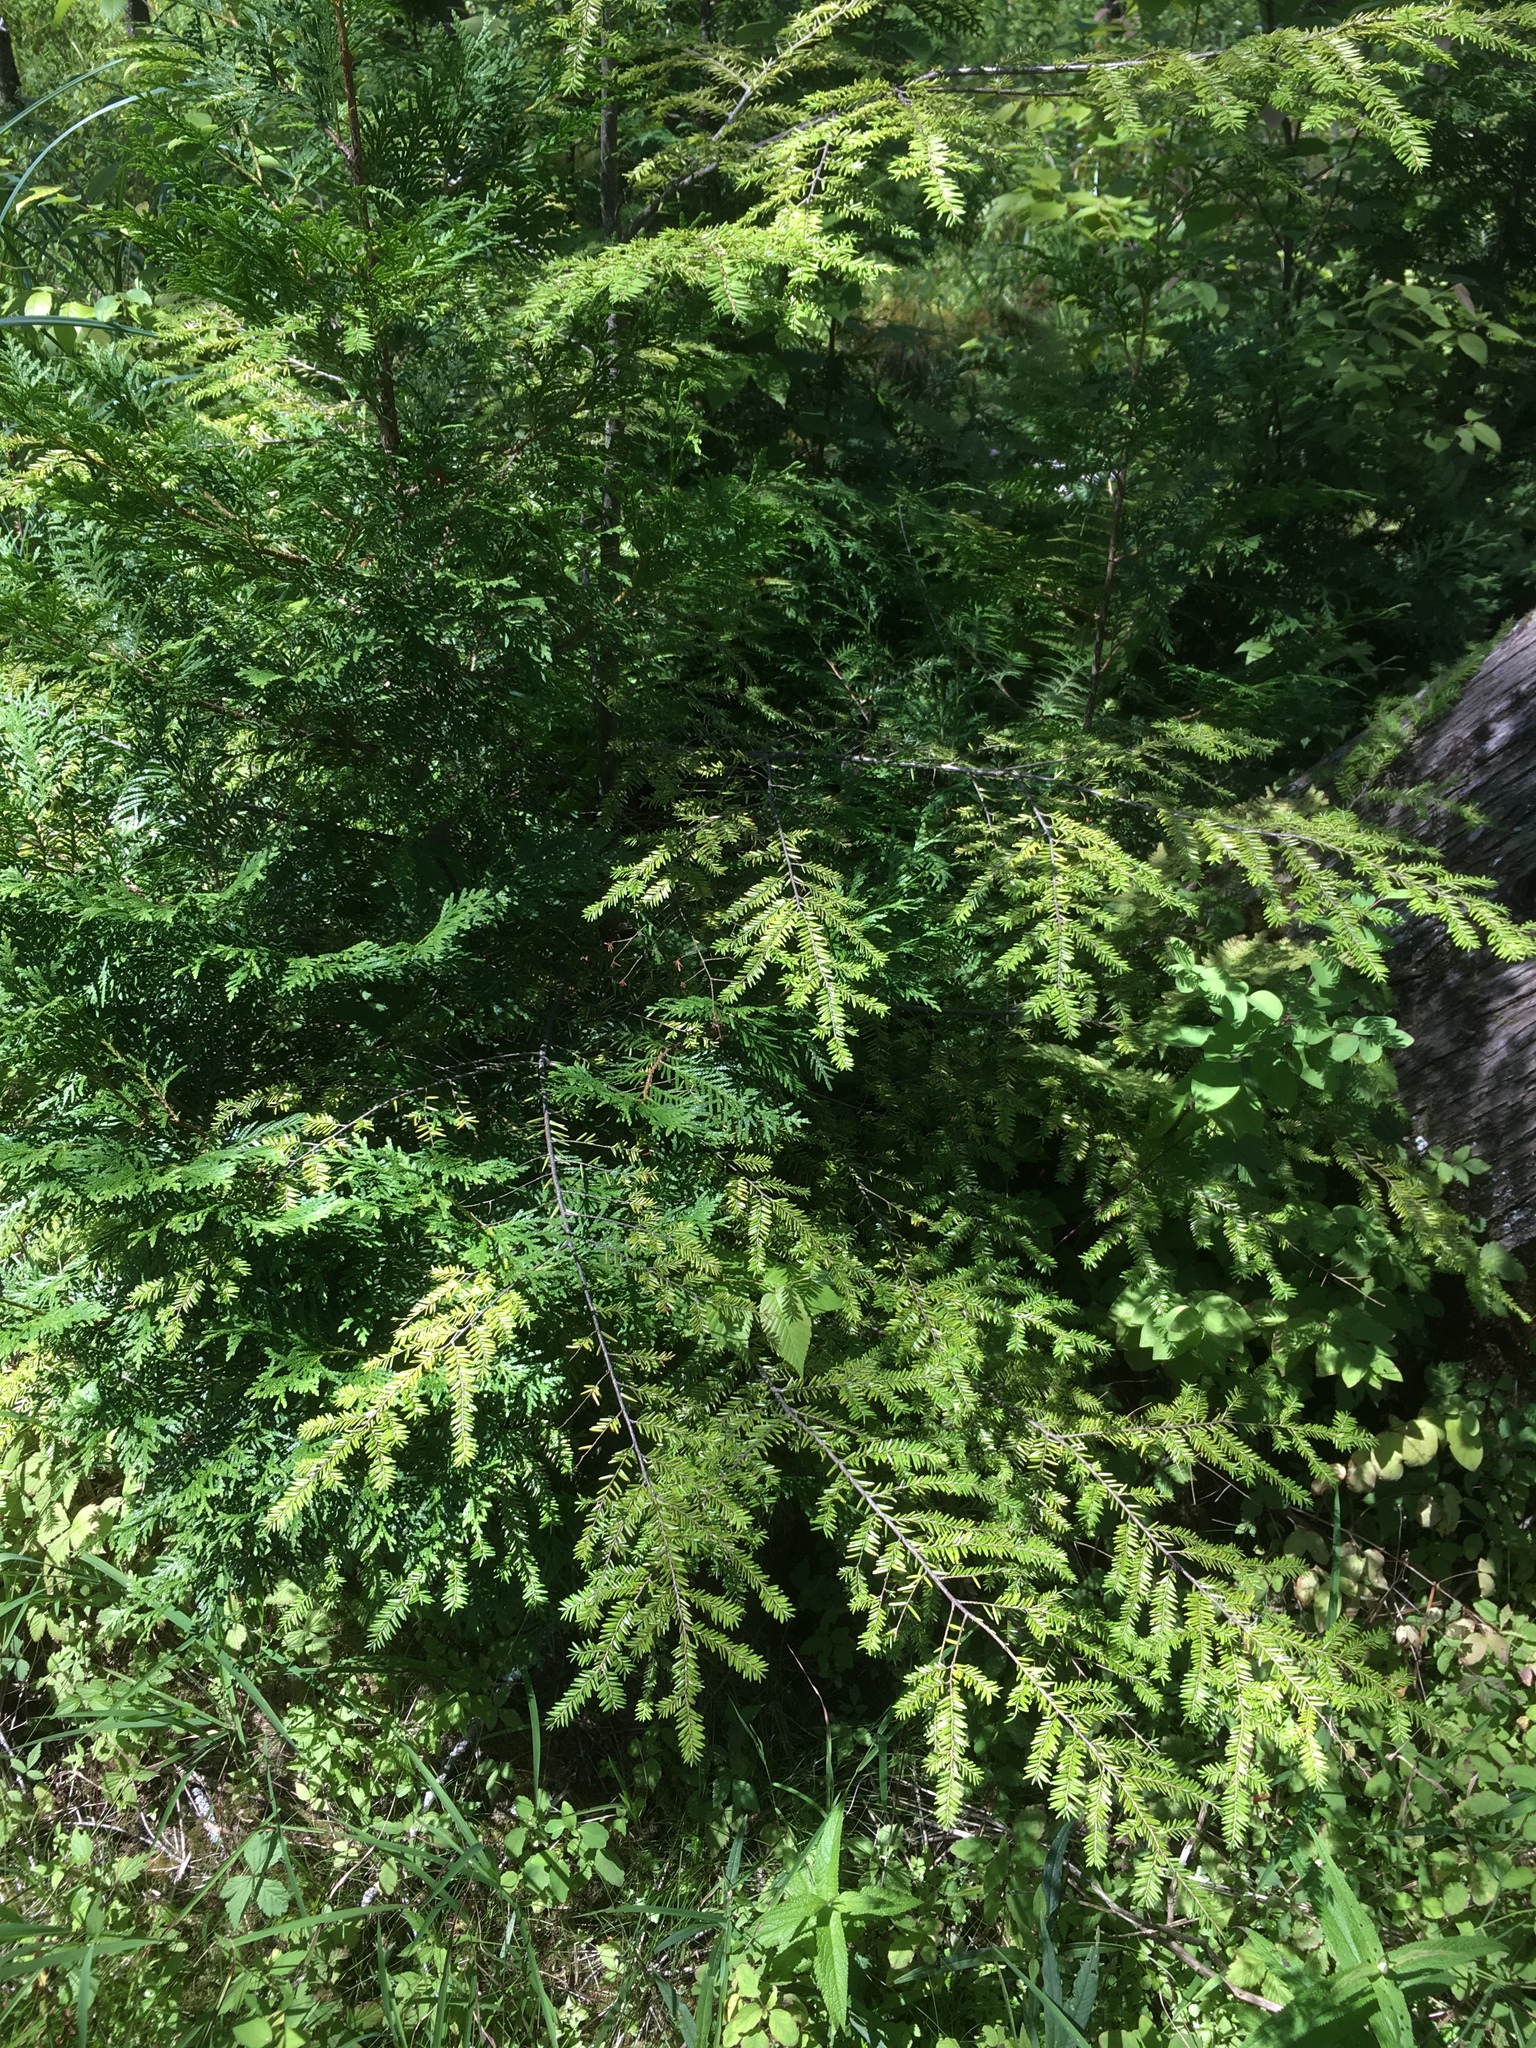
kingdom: Plantae
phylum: Tracheophyta
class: Pinopsida
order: Pinales
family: Pinaceae
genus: Tsuga
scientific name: Tsuga canadensis
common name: Eastern hemlock
